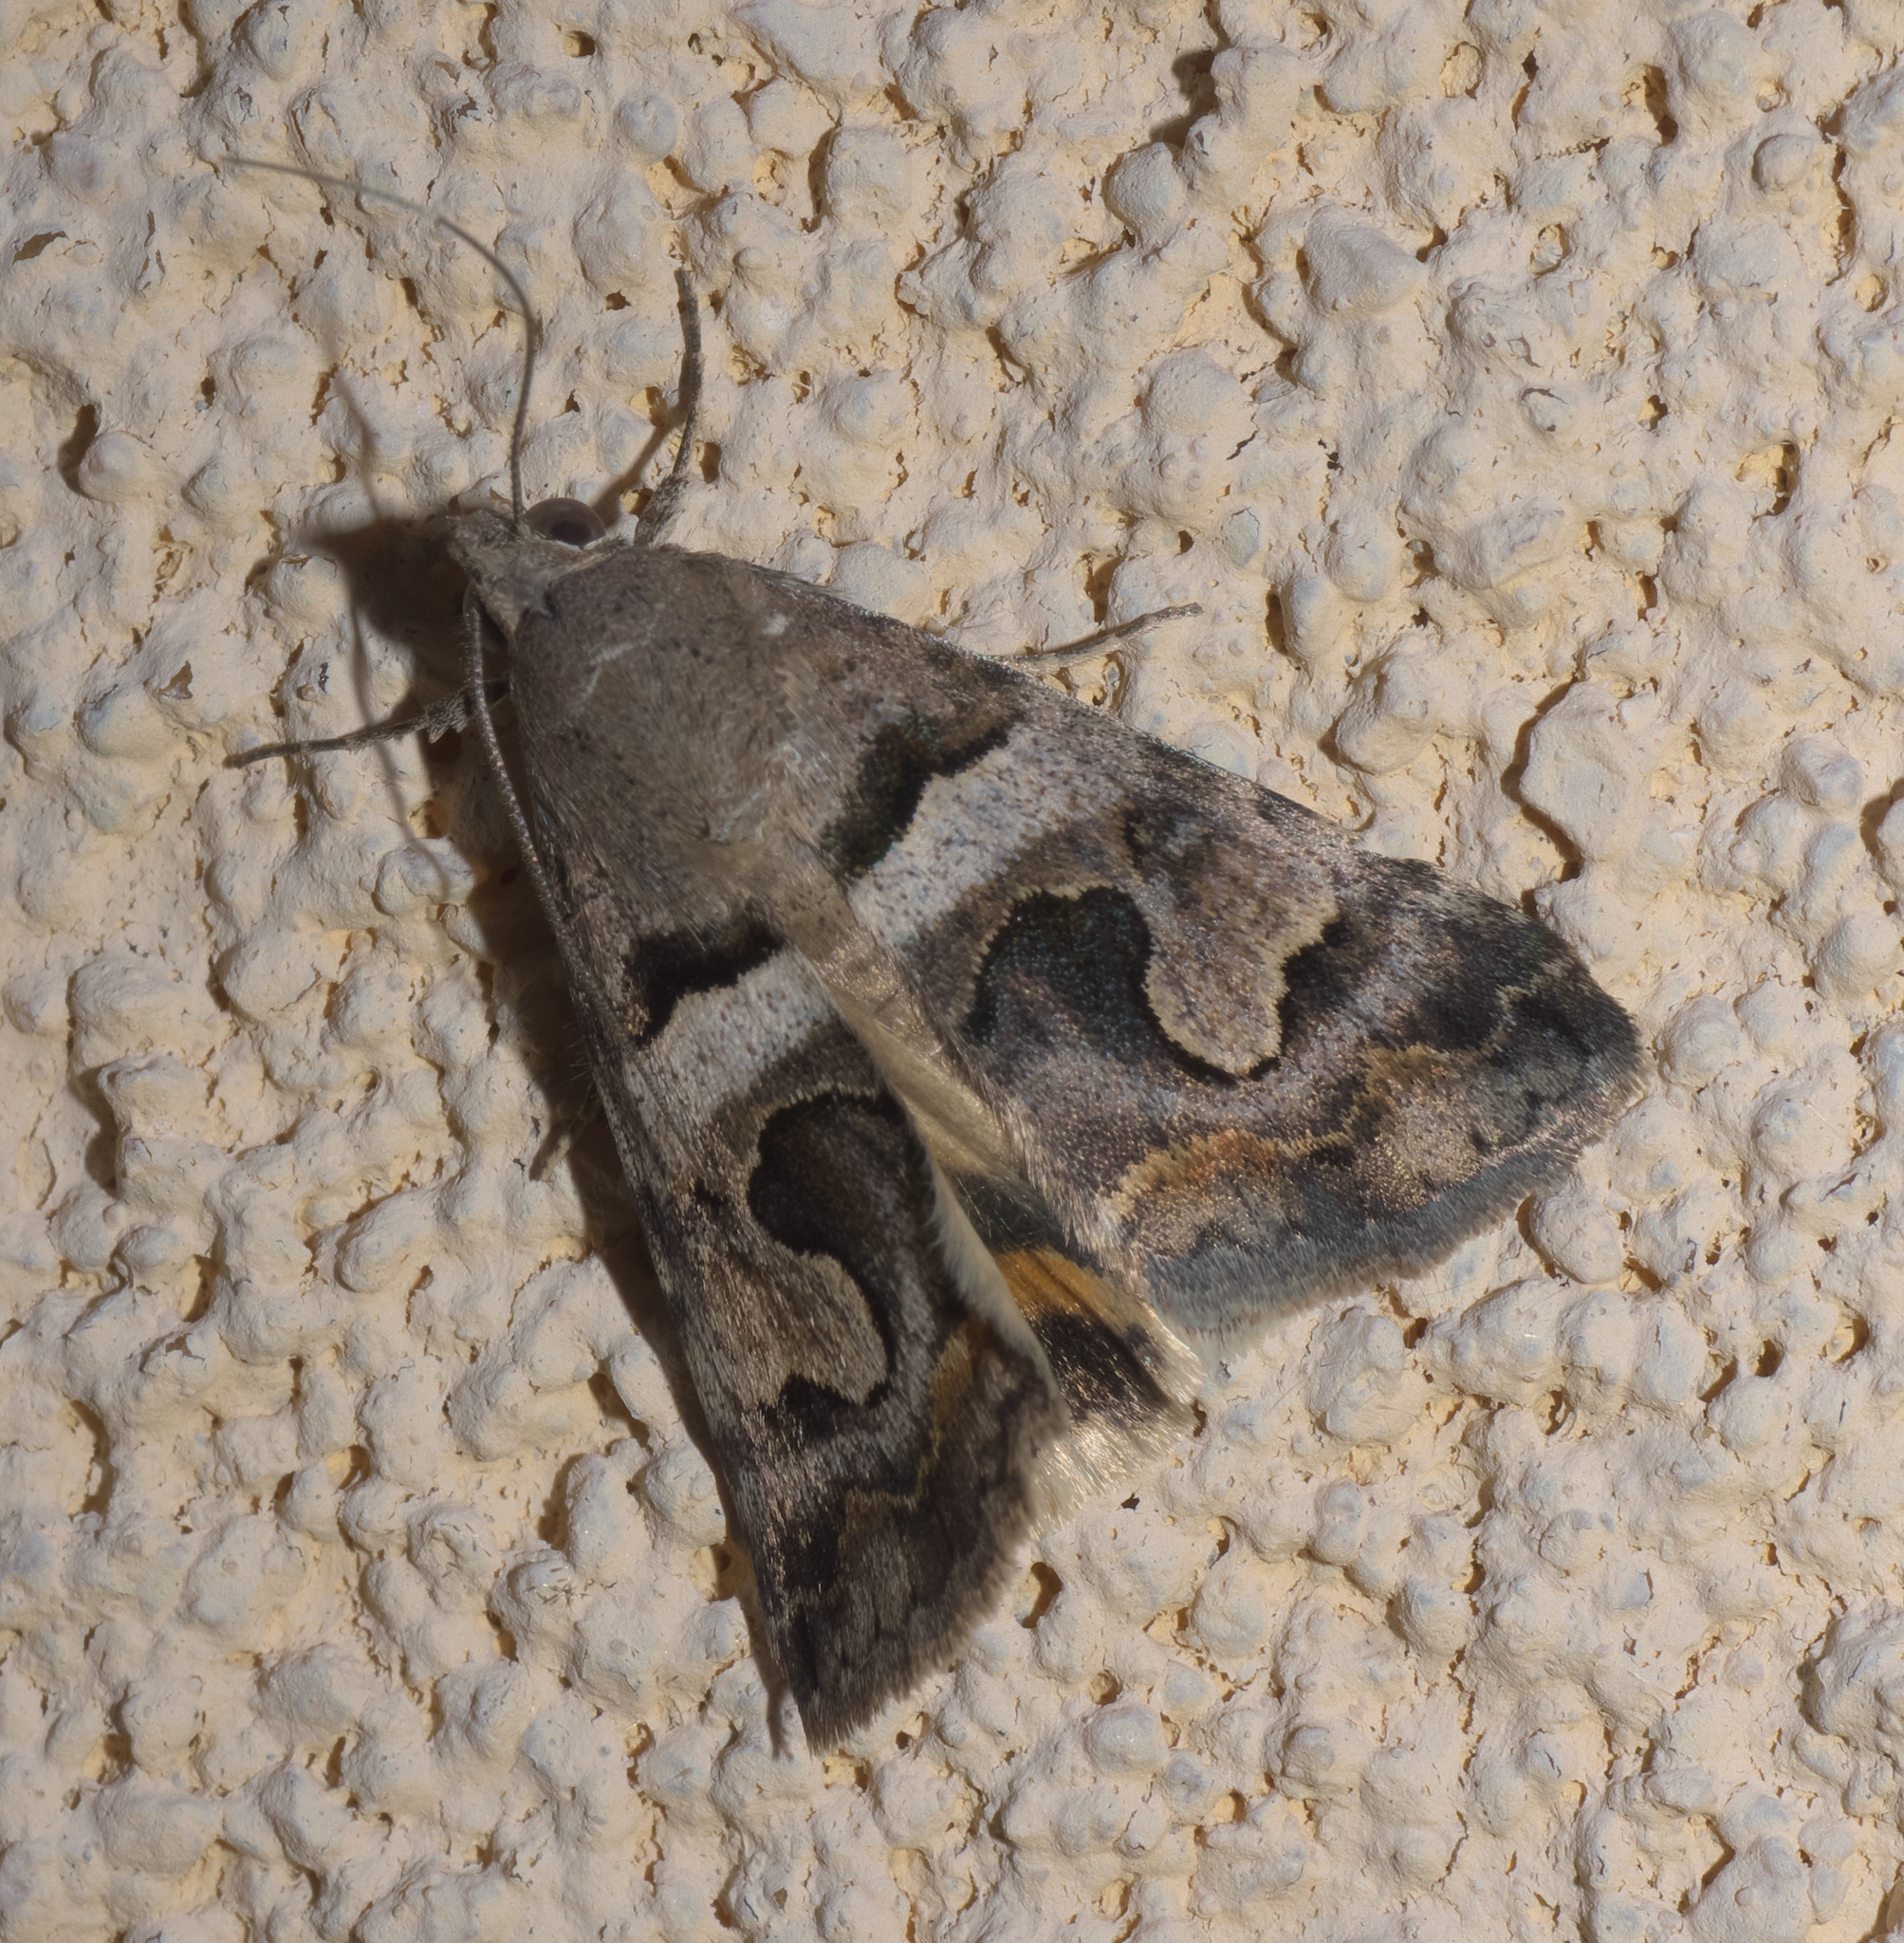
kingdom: Animalia
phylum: Arthropoda
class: Insecta
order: Lepidoptera
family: Erebidae
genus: Bulia
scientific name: Bulia deducta
